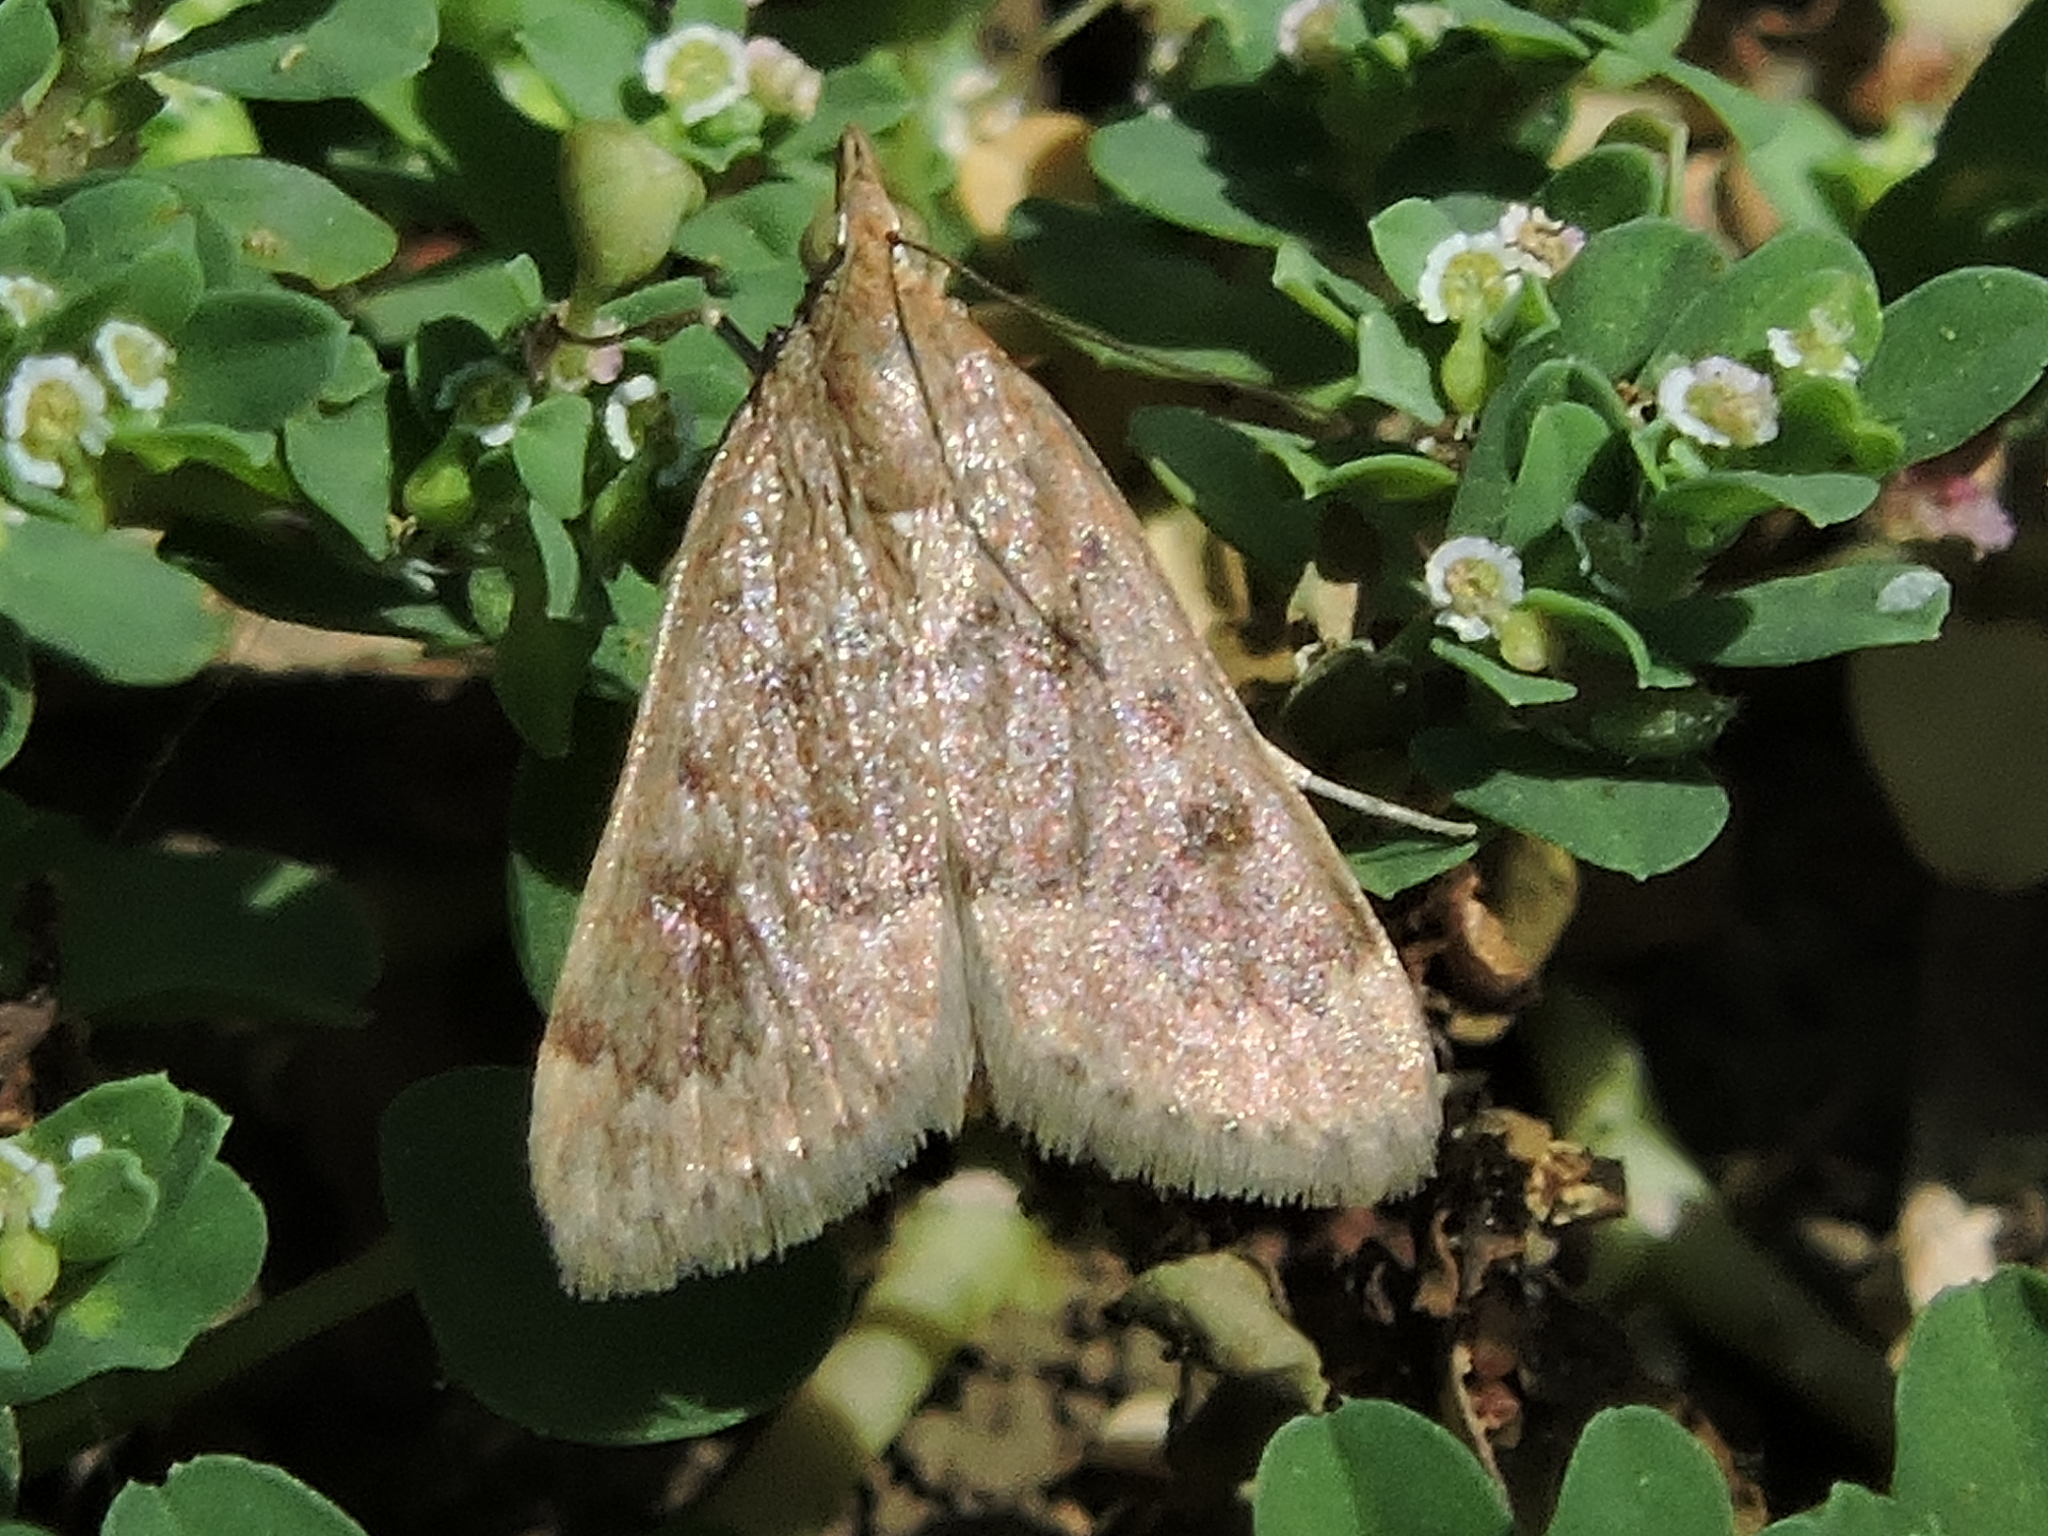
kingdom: Animalia
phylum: Arthropoda
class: Insecta
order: Lepidoptera
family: Crambidae
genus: Achyra
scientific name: Achyra rantalis
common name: Garden webworm
